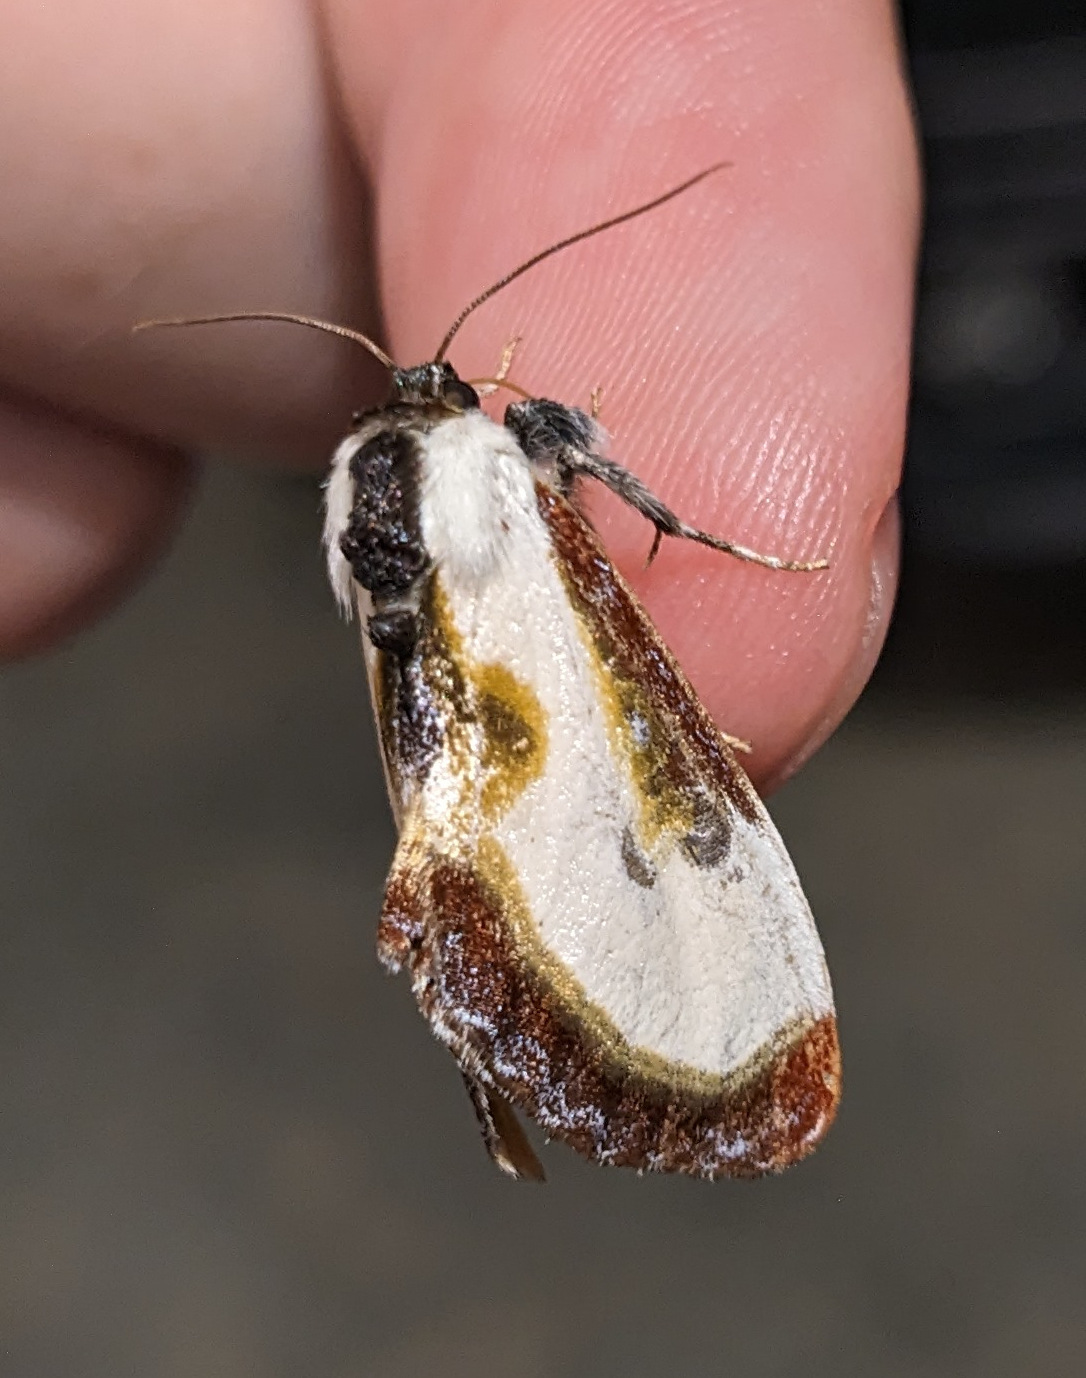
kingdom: Animalia
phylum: Arthropoda
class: Insecta
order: Lepidoptera
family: Noctuidae
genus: Eudryas
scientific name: Eudryas grata
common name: Beautiful wood-nymph
